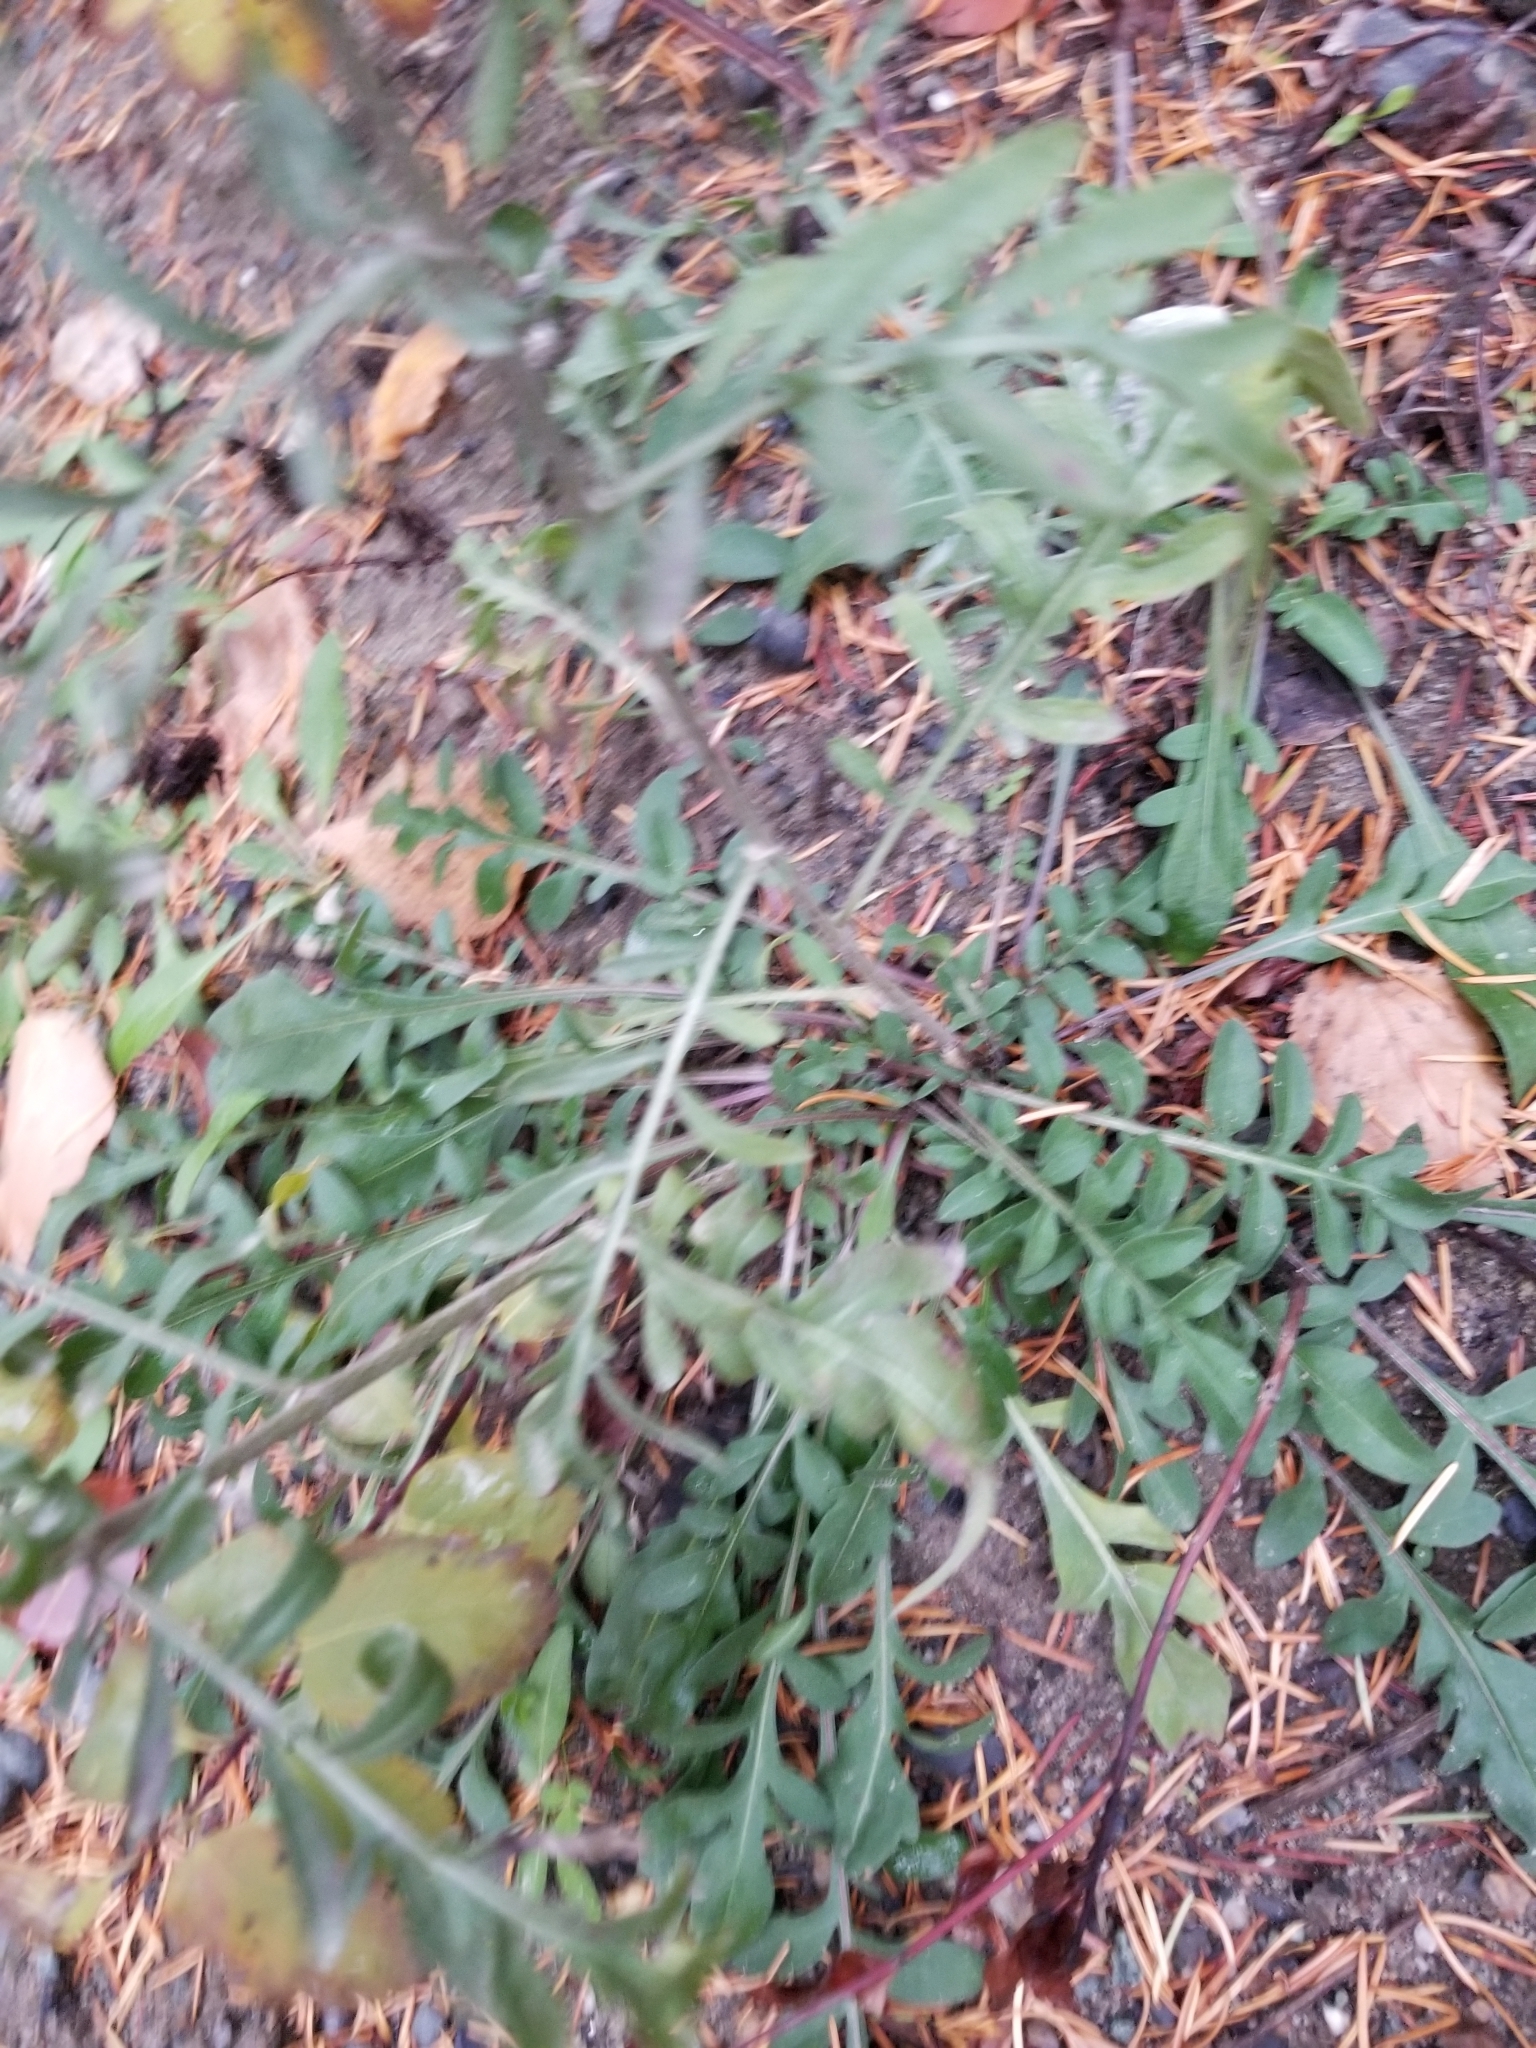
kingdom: Plantae
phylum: Tracheophyta
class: Magnoliopsida
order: Asterales
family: Asteraceae
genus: Centaurea
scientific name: Centaurea stoebe
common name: Spotted knapweed
